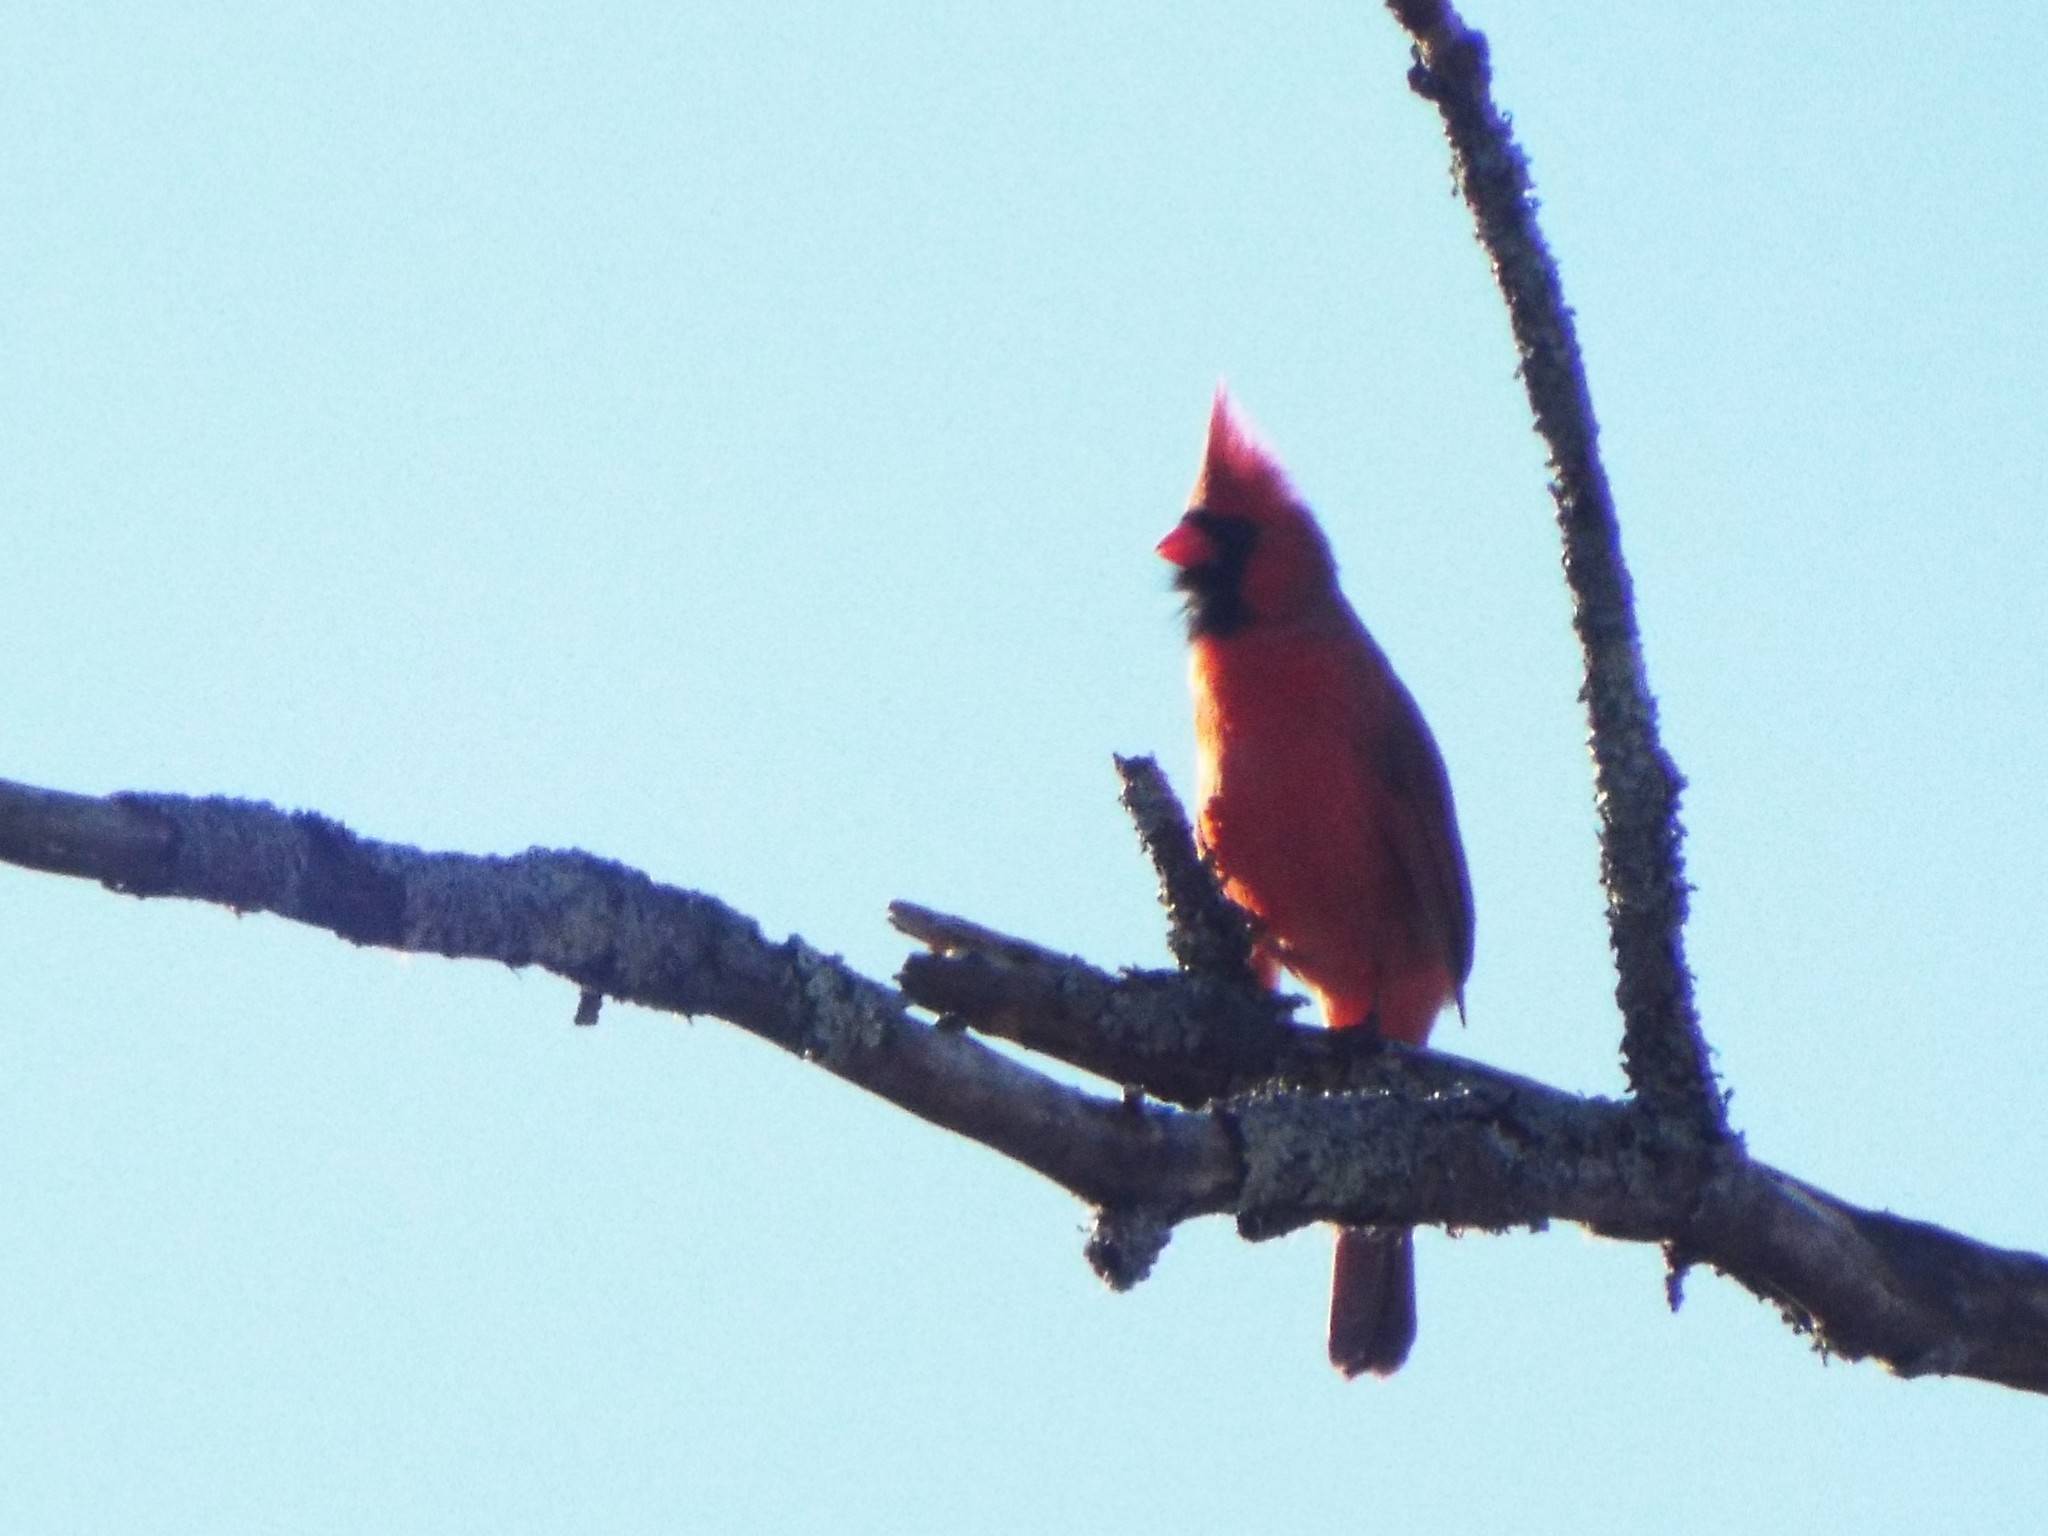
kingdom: Animalia
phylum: Chordata
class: Aves
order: Passeriformes
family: Cardinalidae
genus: Cardinalis
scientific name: Cardinalis cardinalis
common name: Northern cardinal
